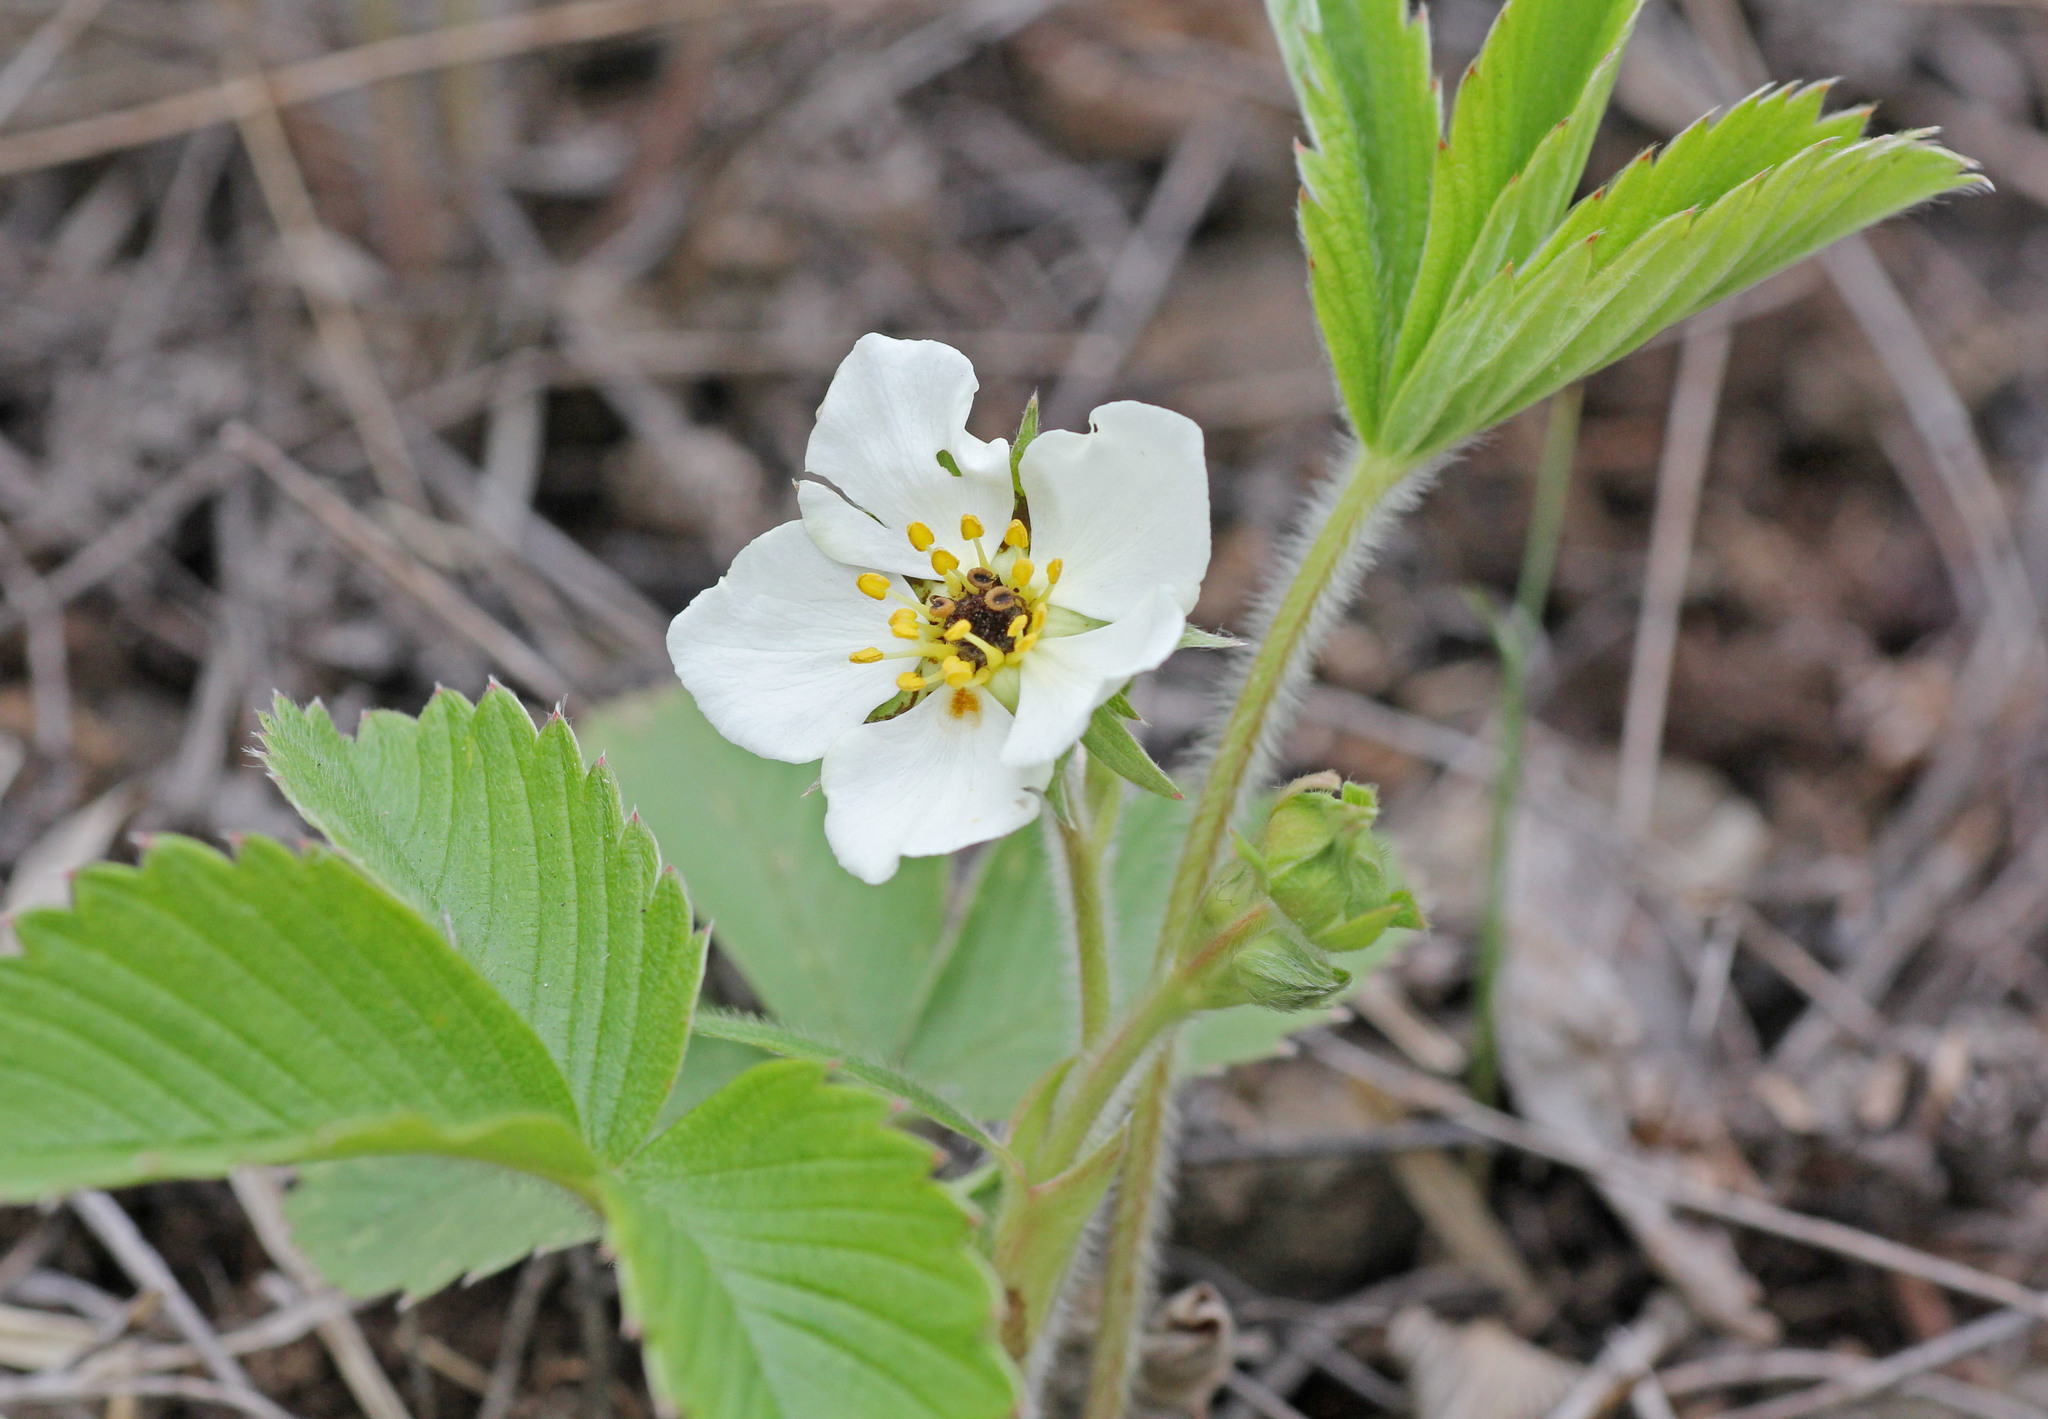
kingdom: Plantae
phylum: Tracheophyta
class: Magnoliopsida
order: Rosales
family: Rosaceae
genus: Fragaria
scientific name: Fragaria viridis
